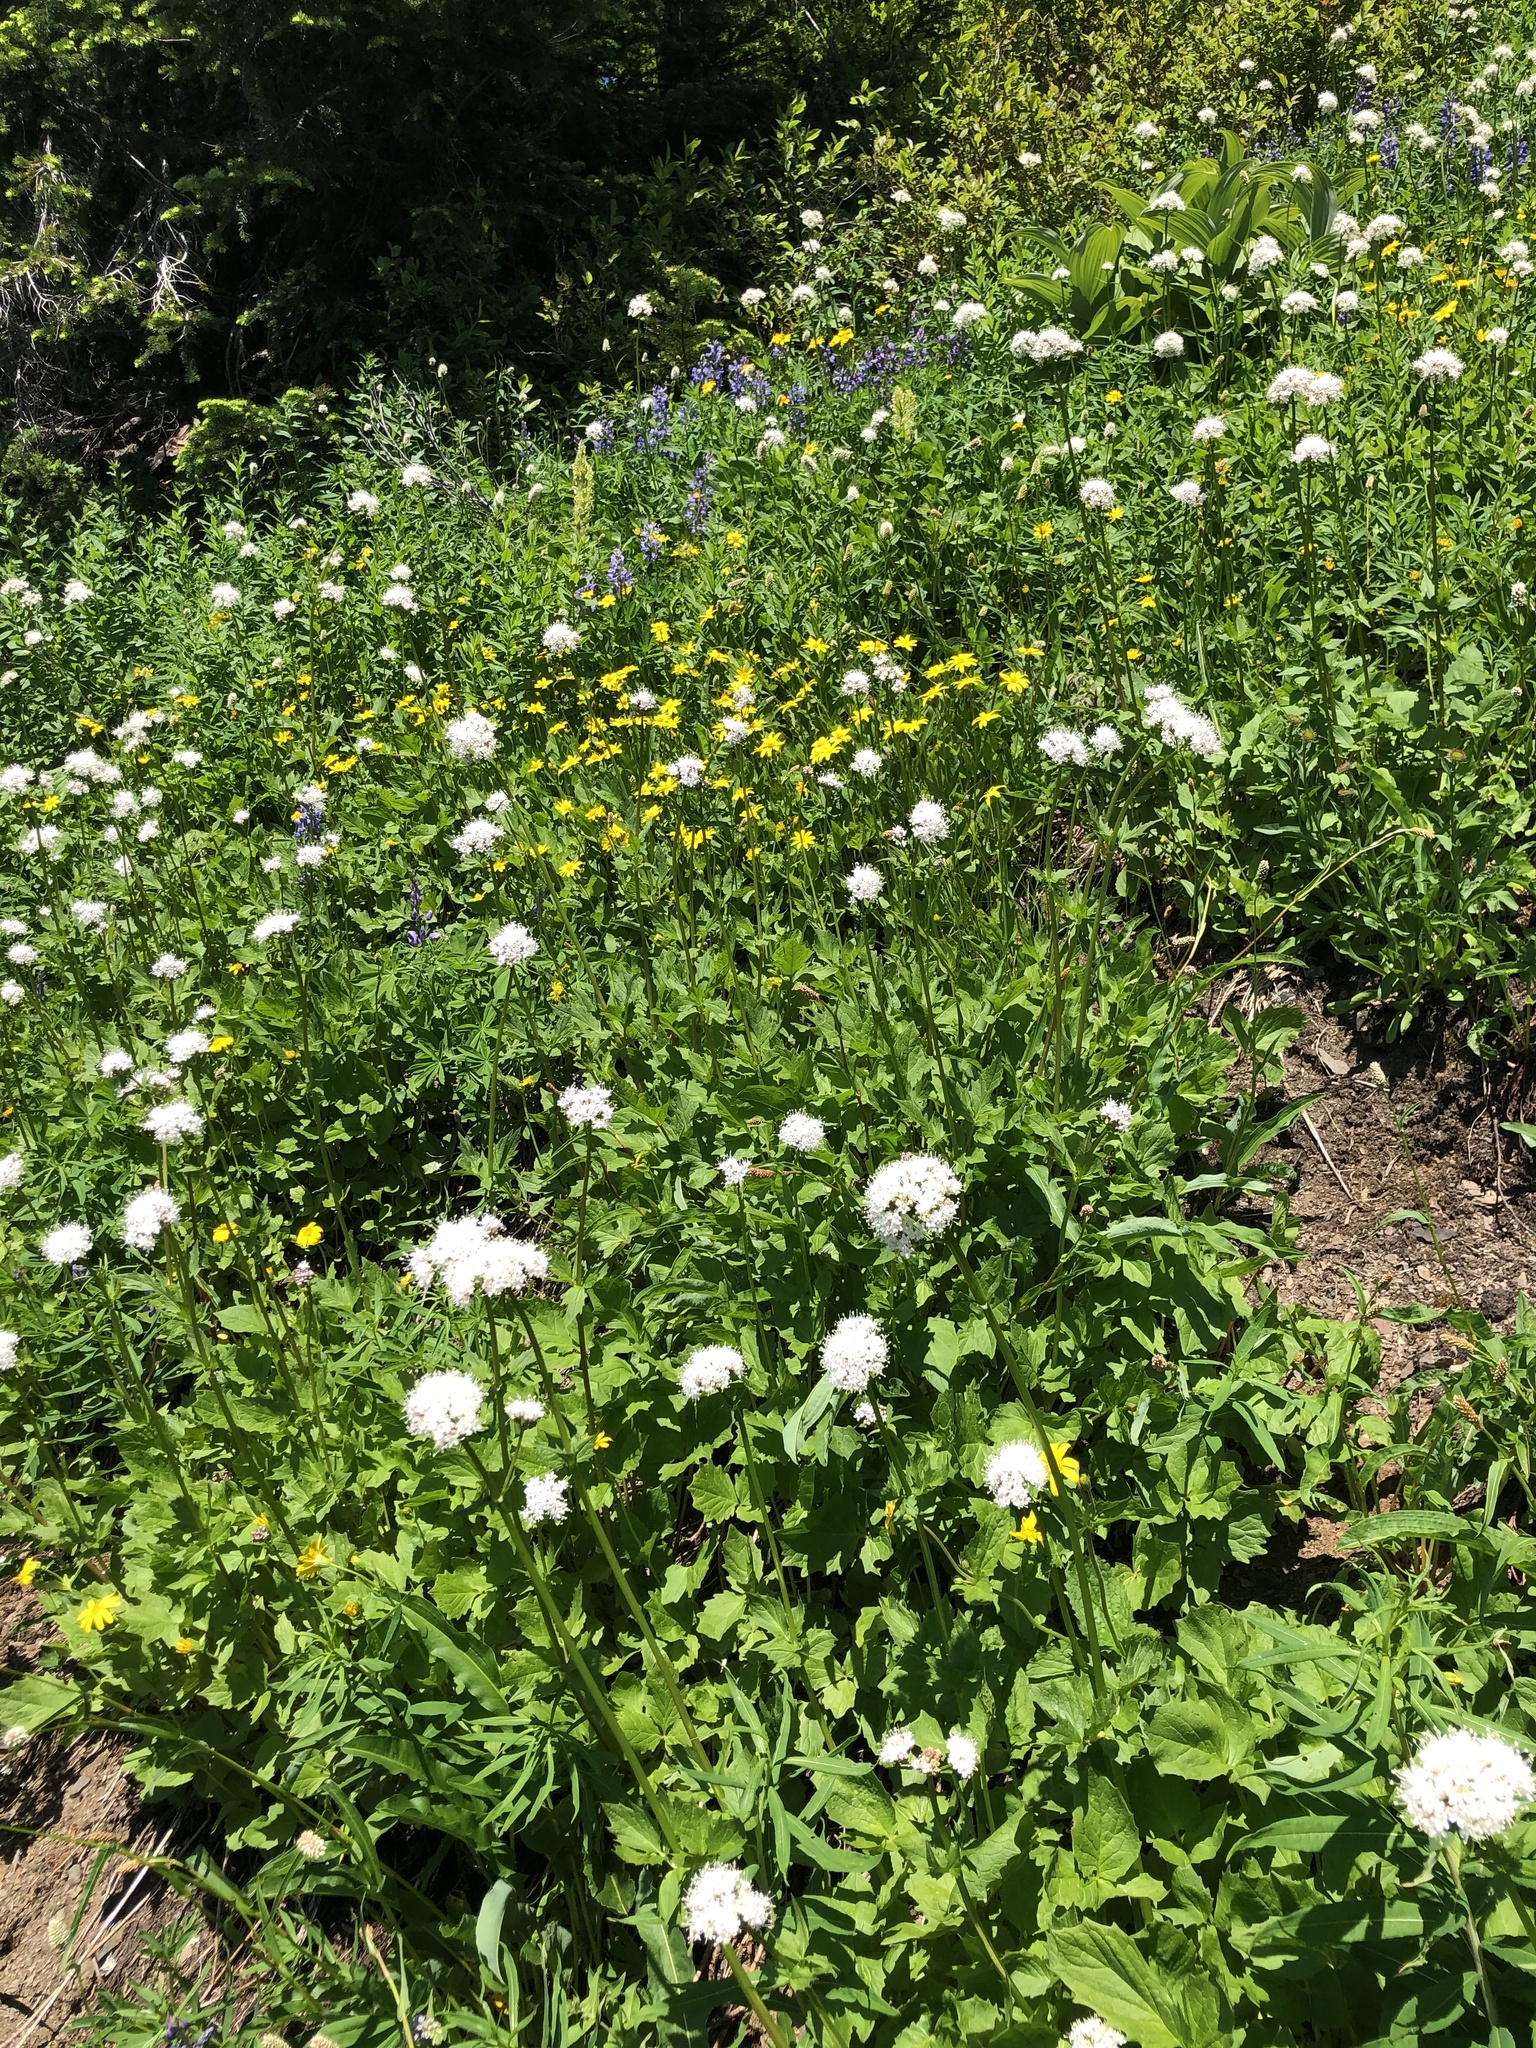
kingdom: Plantae
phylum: Tracheophyta
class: Magnoliopsida
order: Dipsacales
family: Caprifoliaceae
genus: Valeriana
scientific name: Valeriana sitchensis
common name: Pacific valerian
